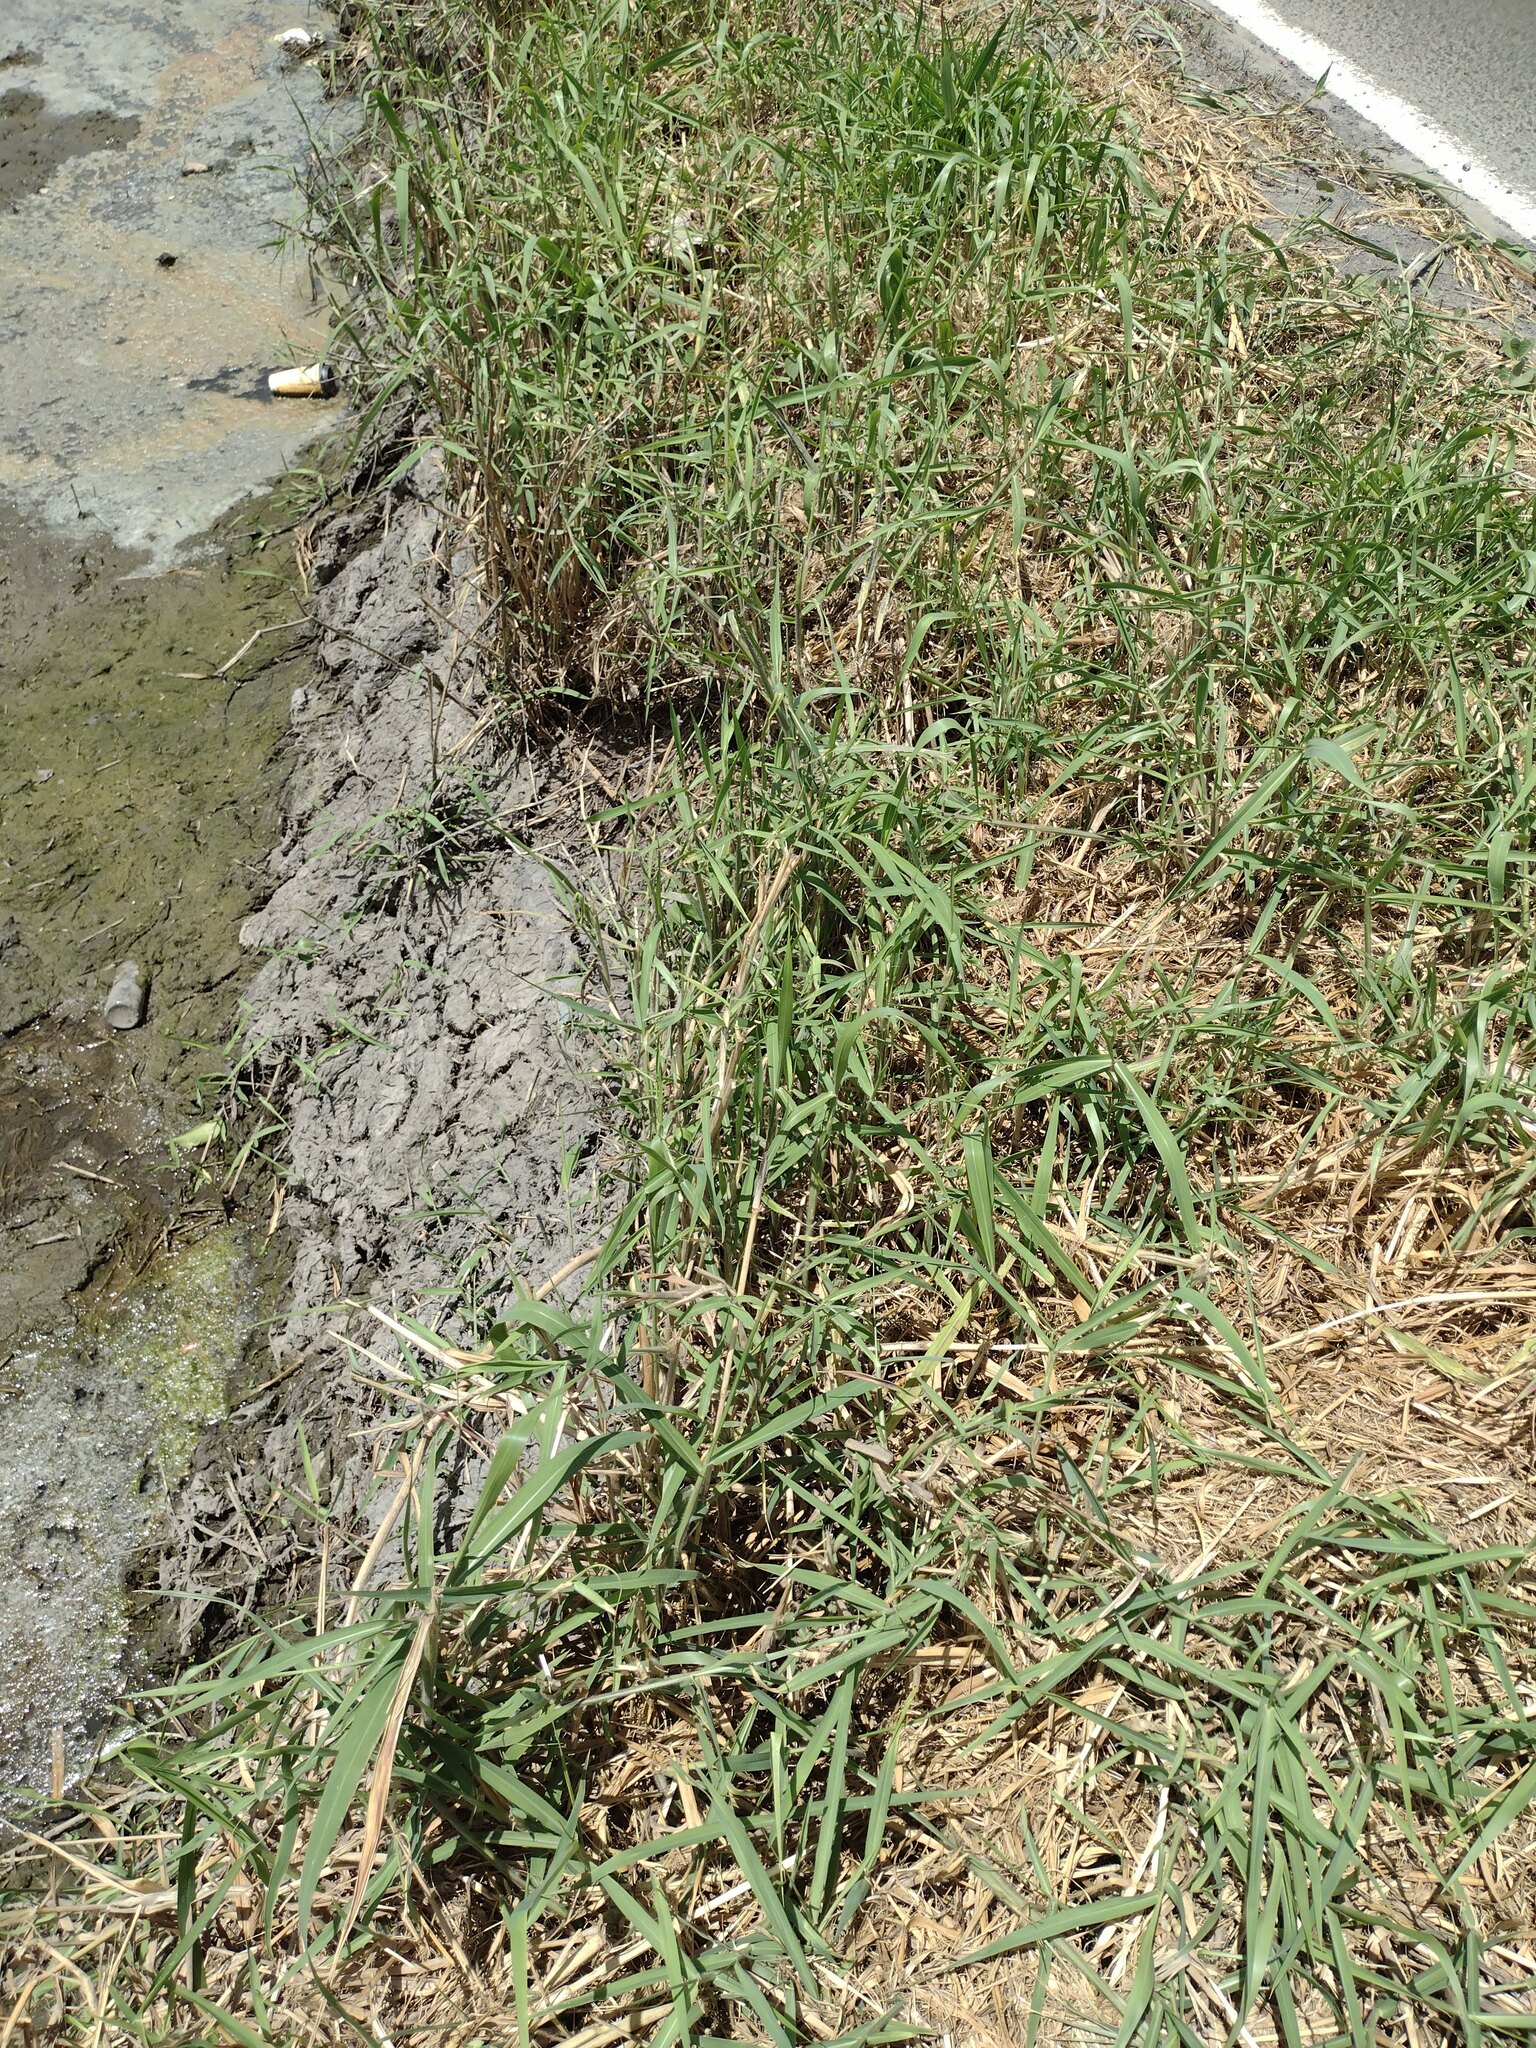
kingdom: Plantae
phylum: Tracheophyta
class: Liliopsida
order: Poales
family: Poaceae
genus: Urochloa
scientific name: Urochloa mutica
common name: Para grass
